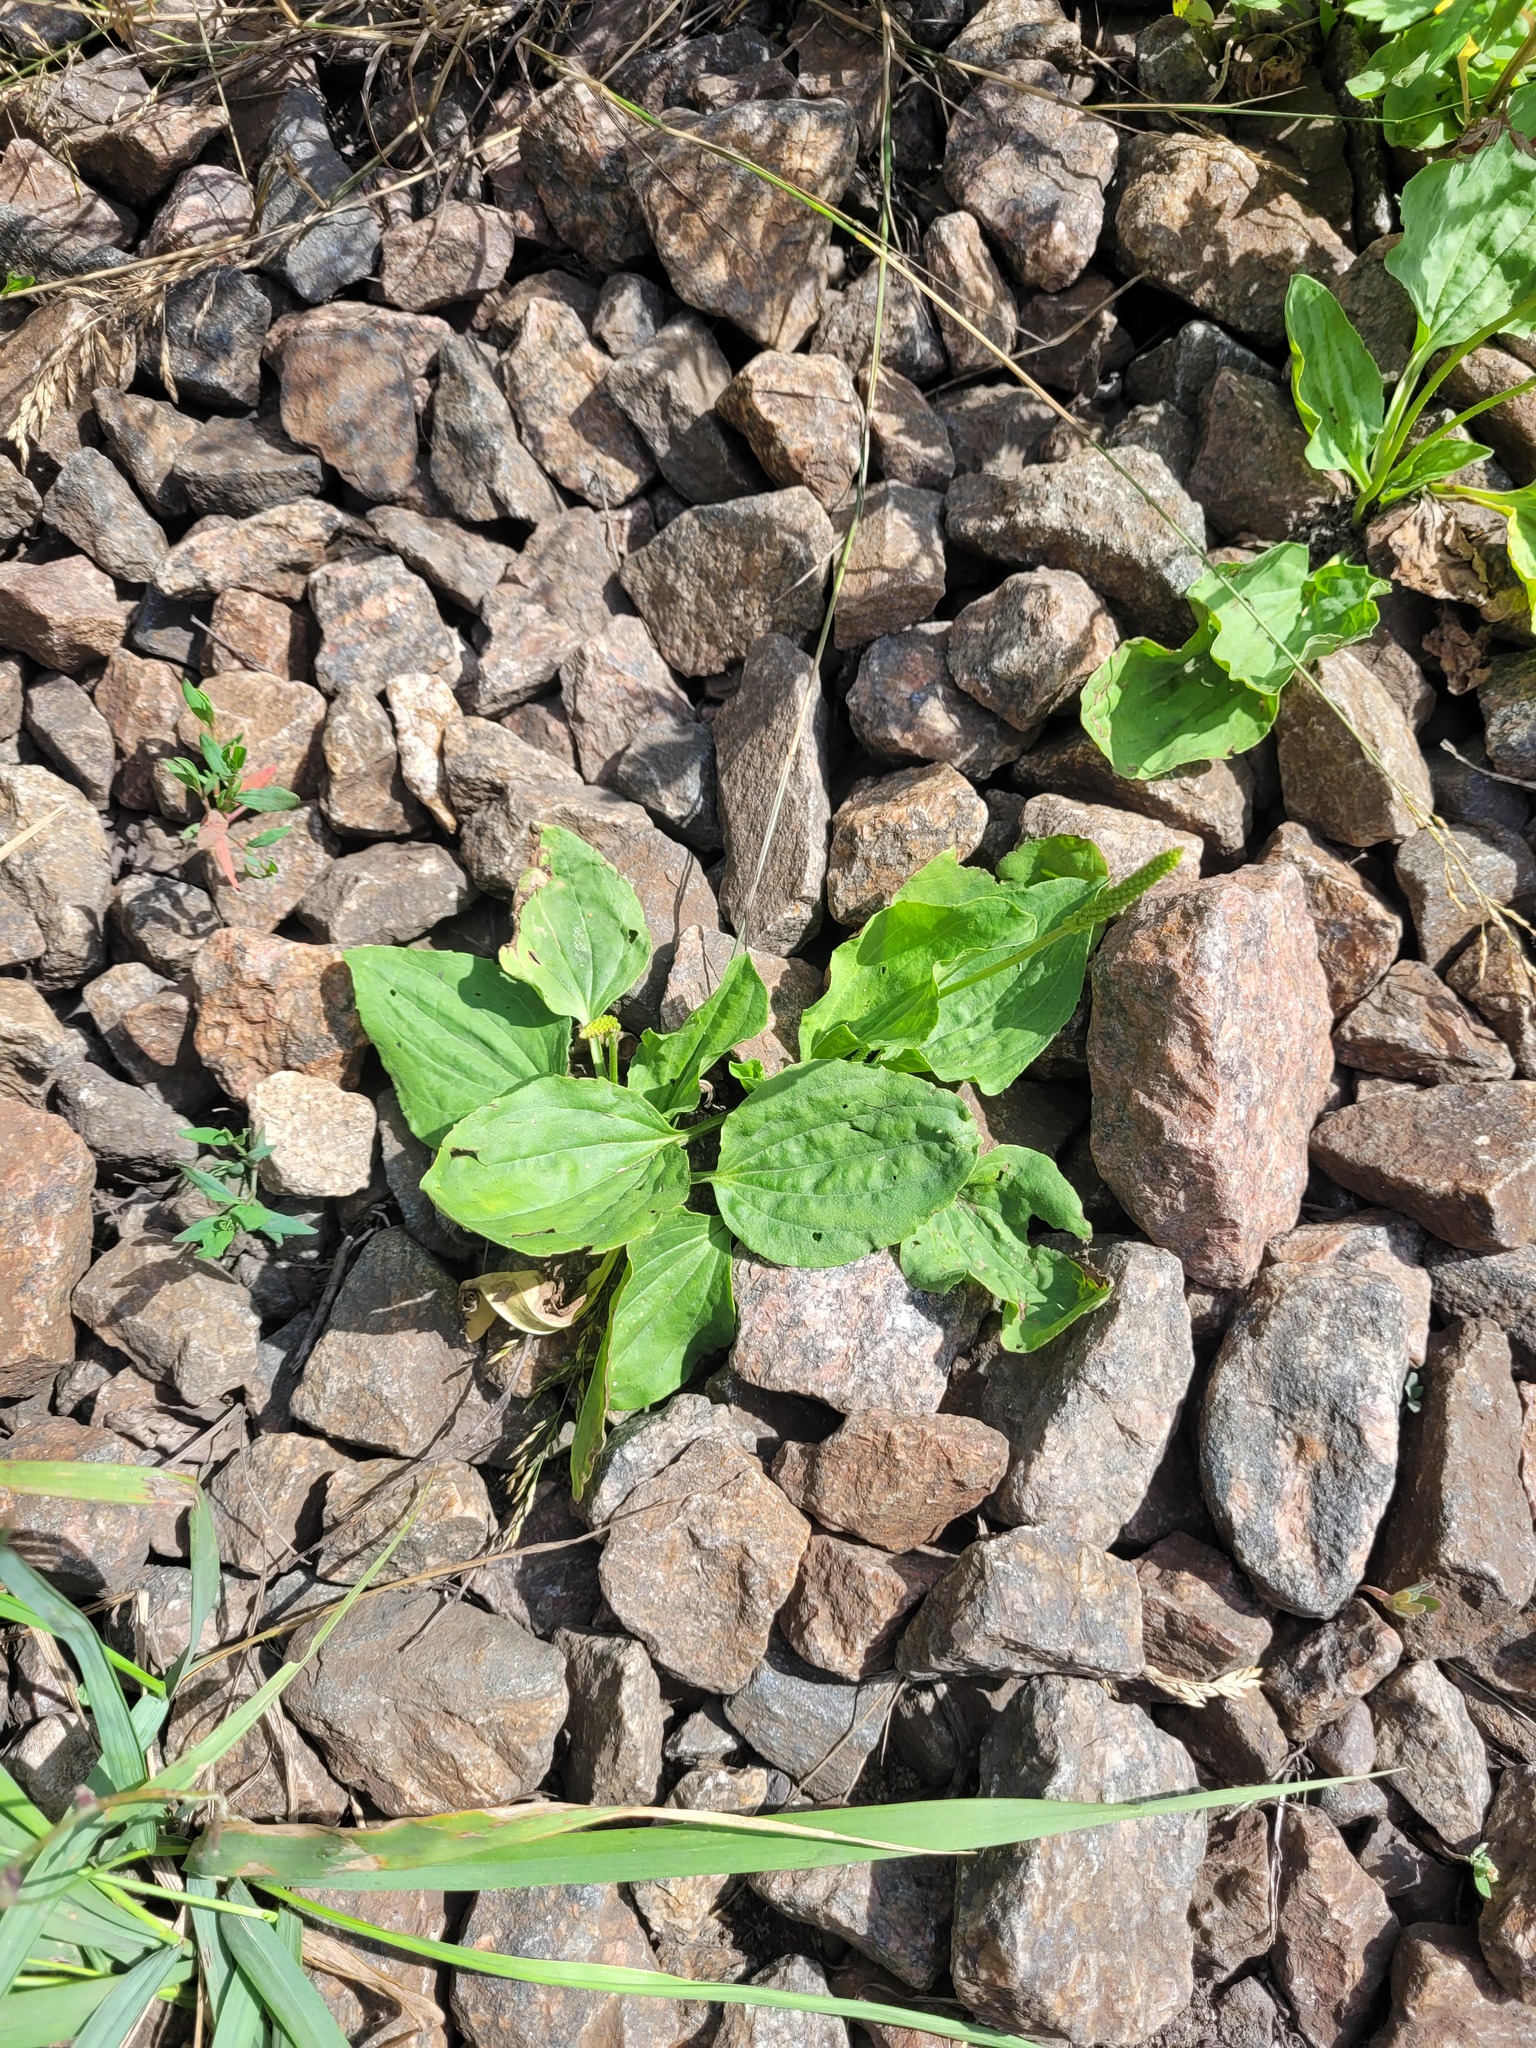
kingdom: Plantae
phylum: Tracheophyta
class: Magnoliopsida
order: Lamiales
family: Plantaginaceae
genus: Plantago
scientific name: Plantago major
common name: Common plantain
